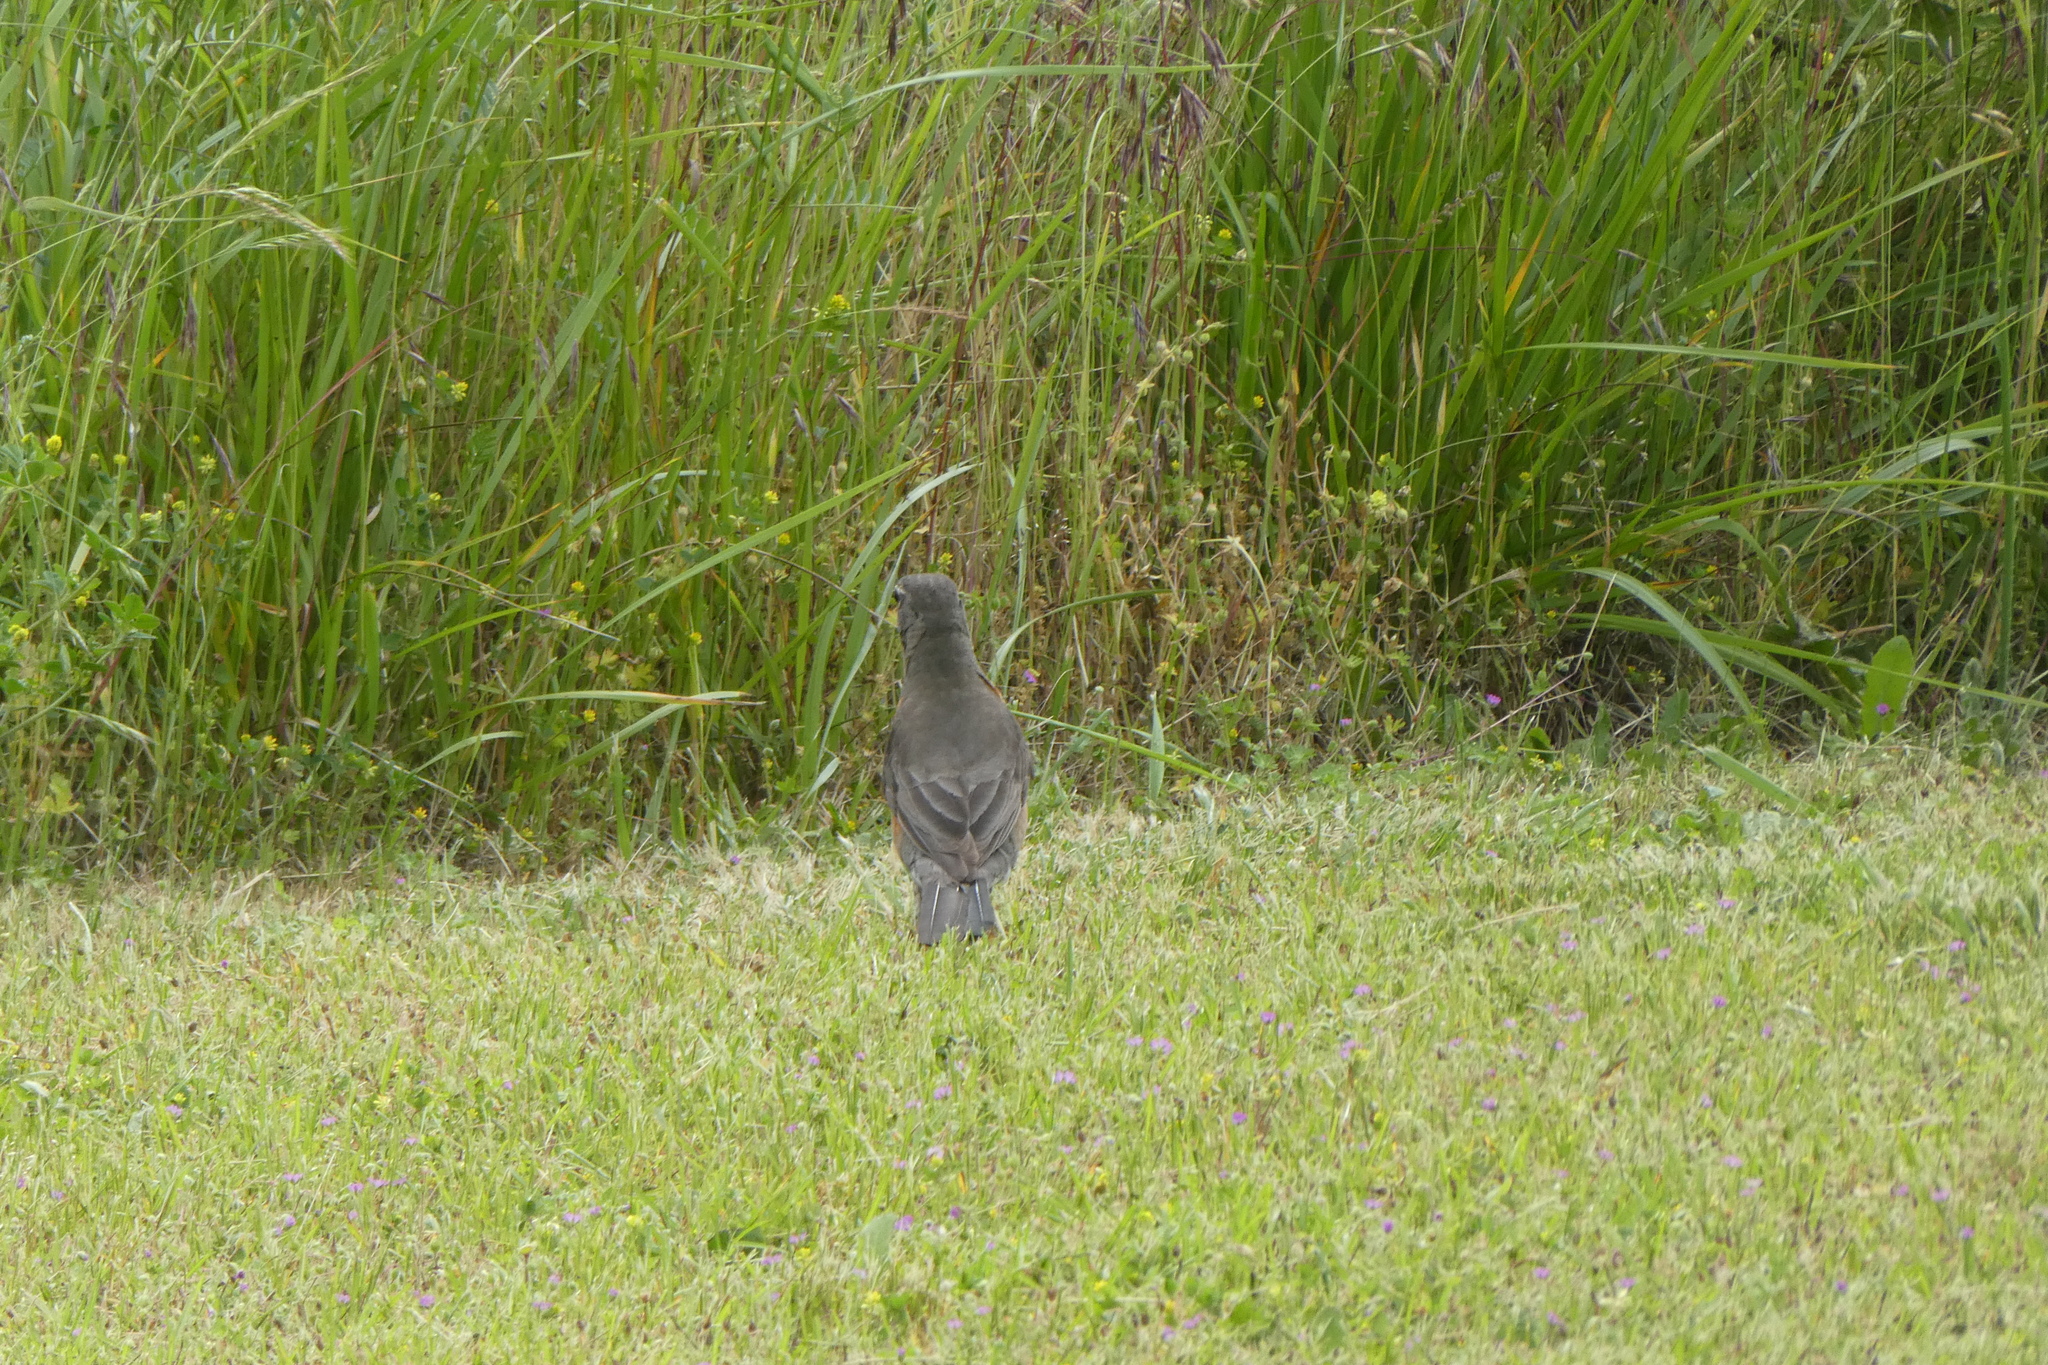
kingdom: Animalia
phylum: Chordata
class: Aves
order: Passeriformes
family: Turdidae
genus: Turdus
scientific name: Turdus migratorius
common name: American robin
